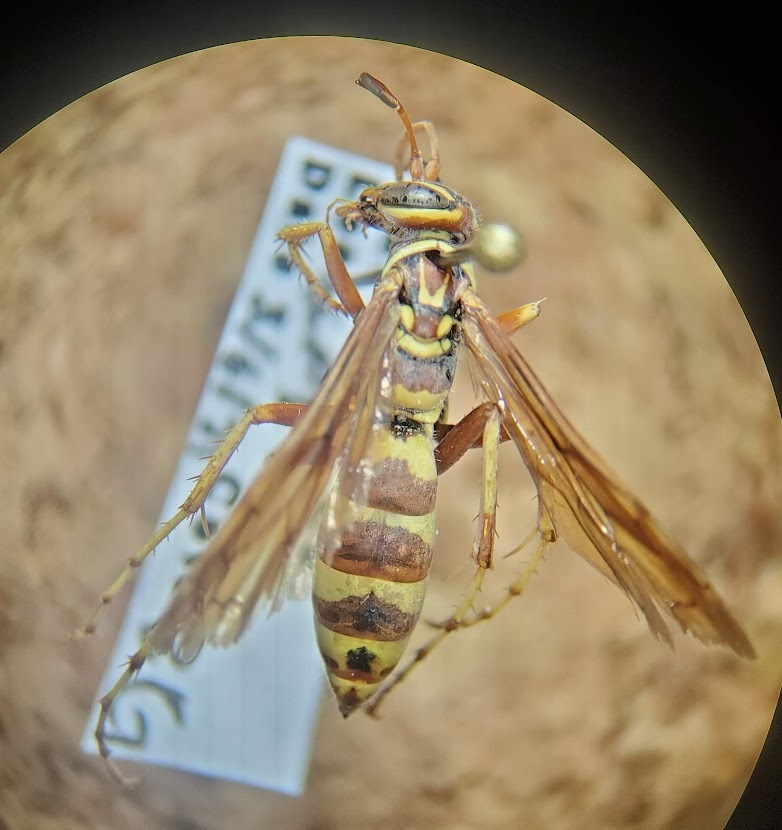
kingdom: Animalia
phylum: Arthropoda
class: Insecta
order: Hymenoptera
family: Pompilidae
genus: Poecilopompilus
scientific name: Poecilopompilus interruptus
